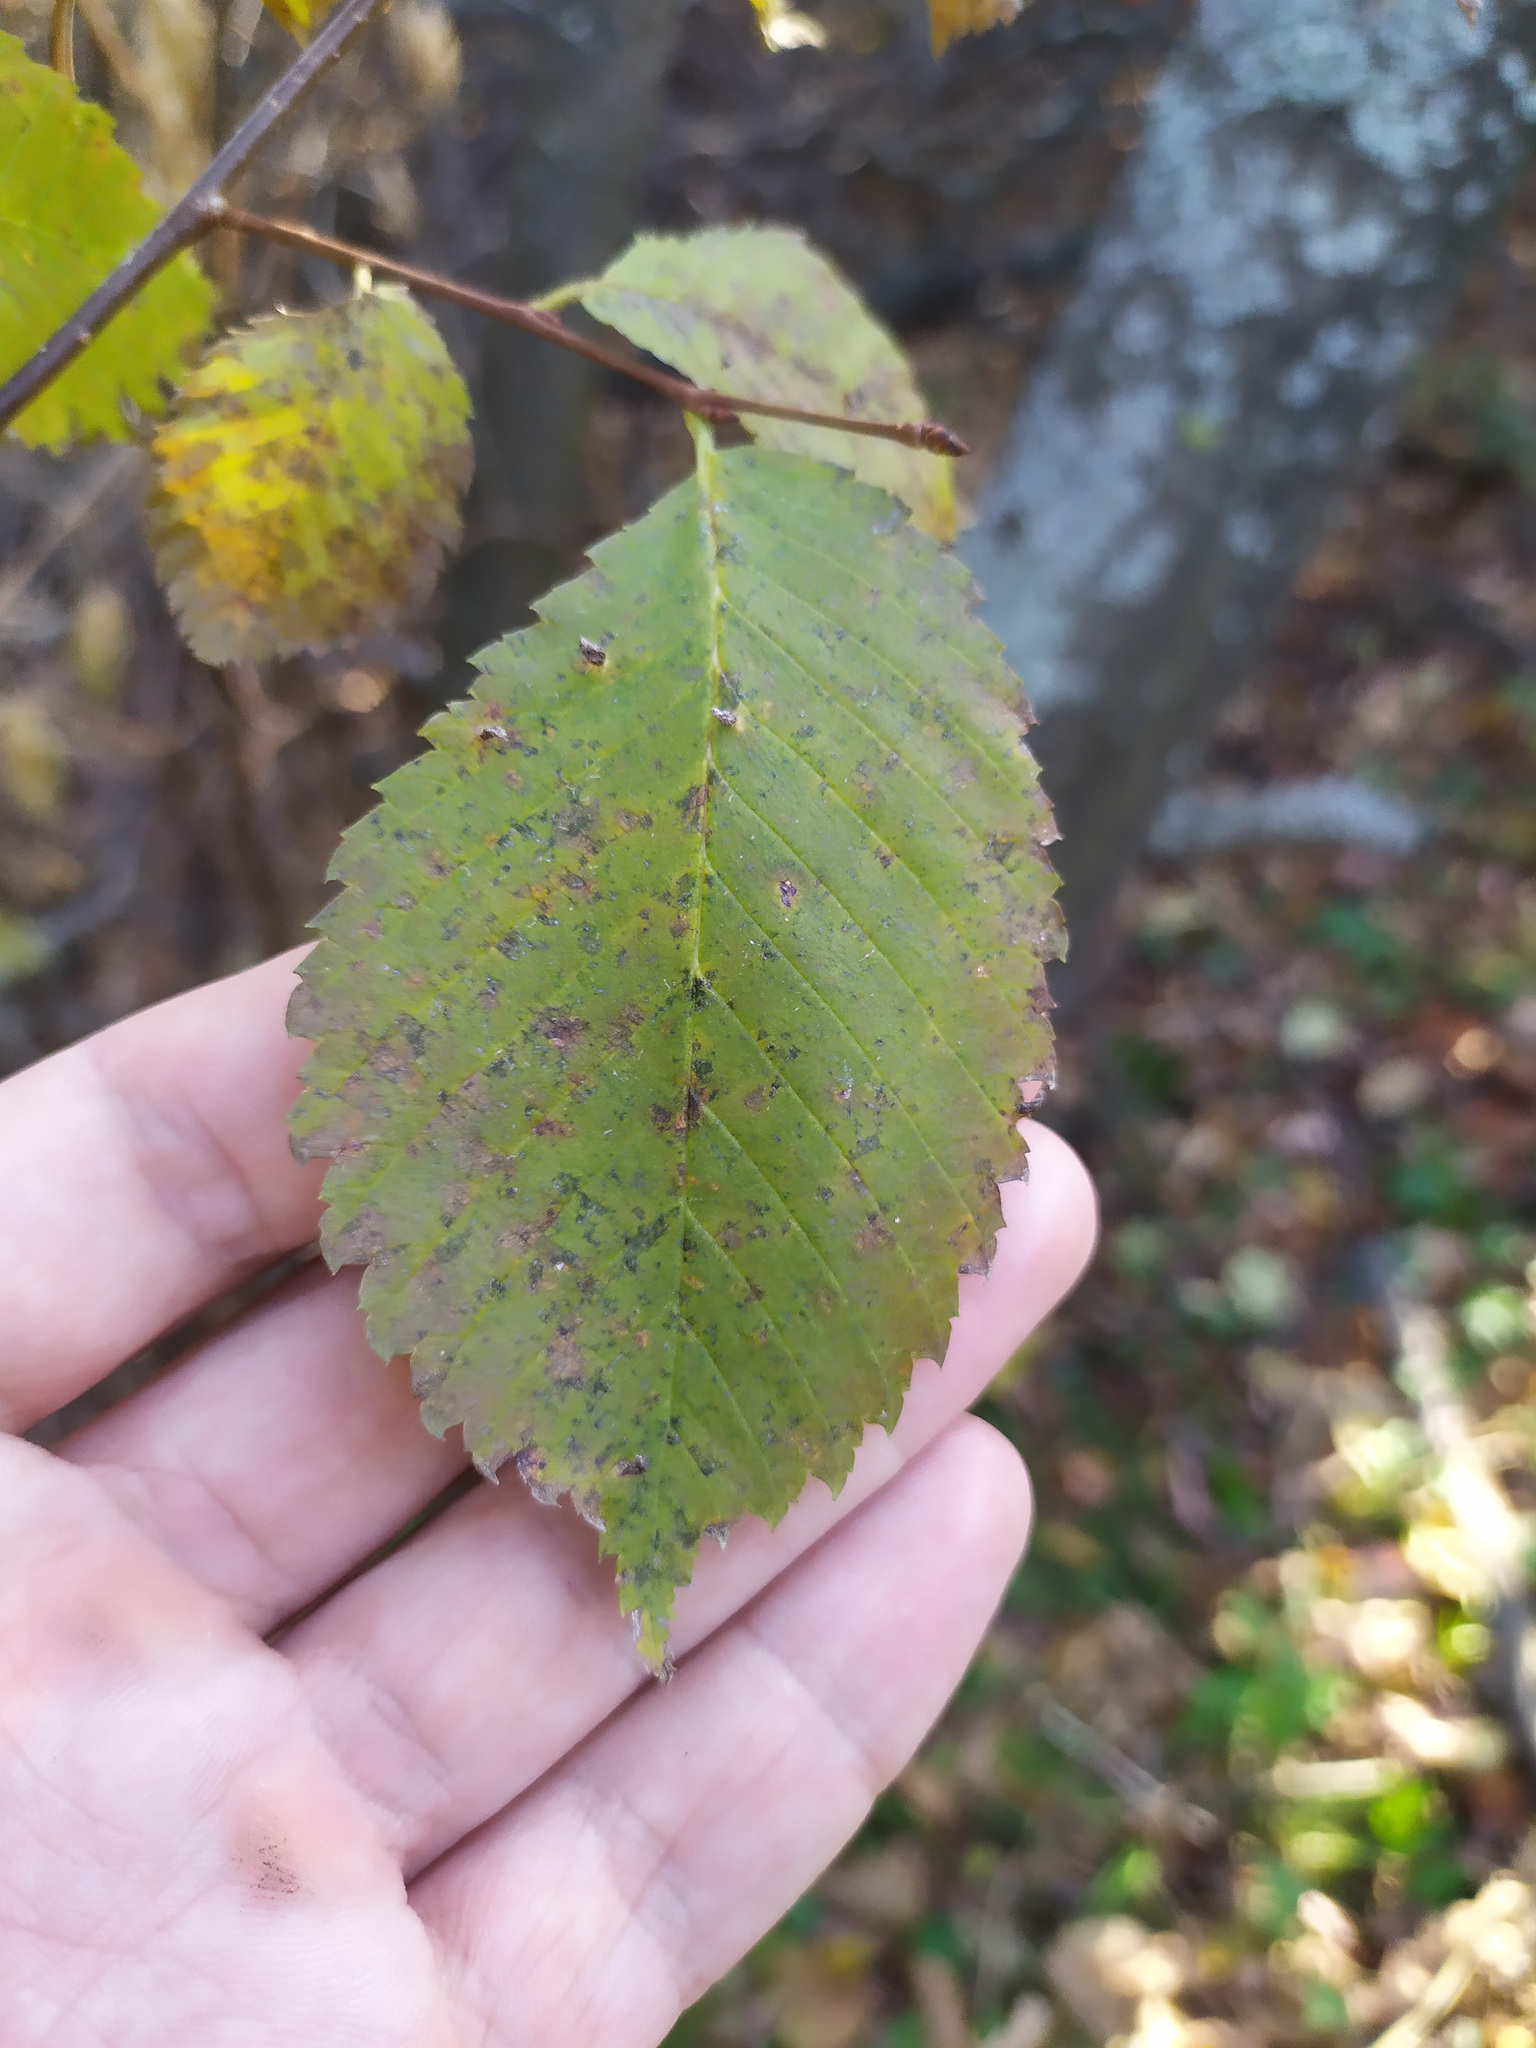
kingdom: Plantae
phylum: Tracheophyta
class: Magnoliopsida
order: Rosales
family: Ulmaceae
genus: Ulmus
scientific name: Ulmus laevis
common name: European white-elm
